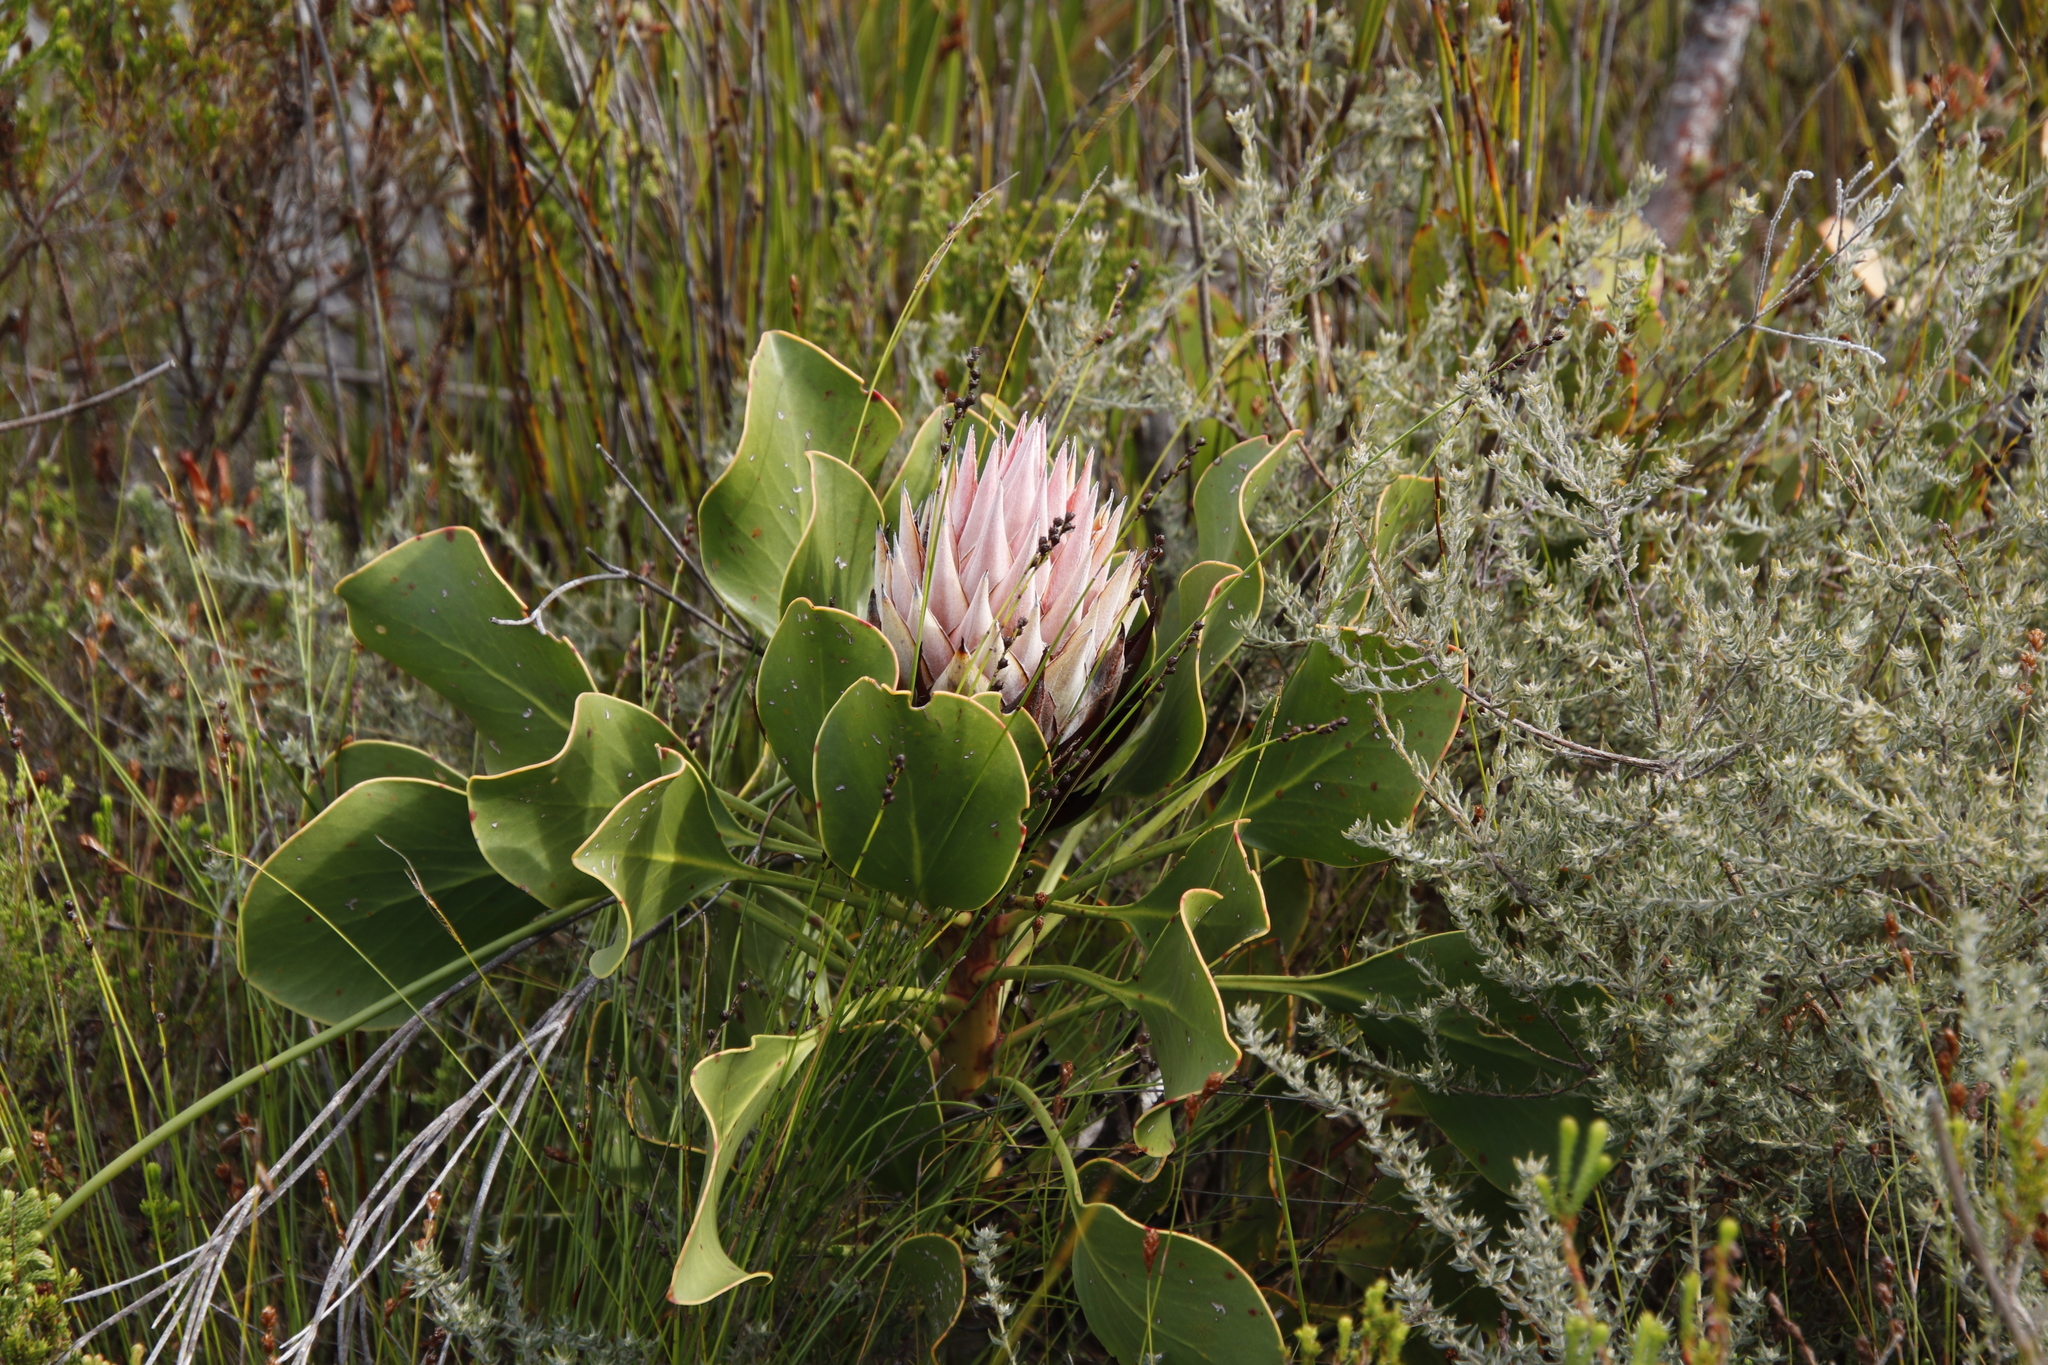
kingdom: Plantae
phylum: Tracheophyta
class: Magnoliopsida
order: Proteales
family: Proteaceae
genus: Protea
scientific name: Protea cynaroides
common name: King protea
